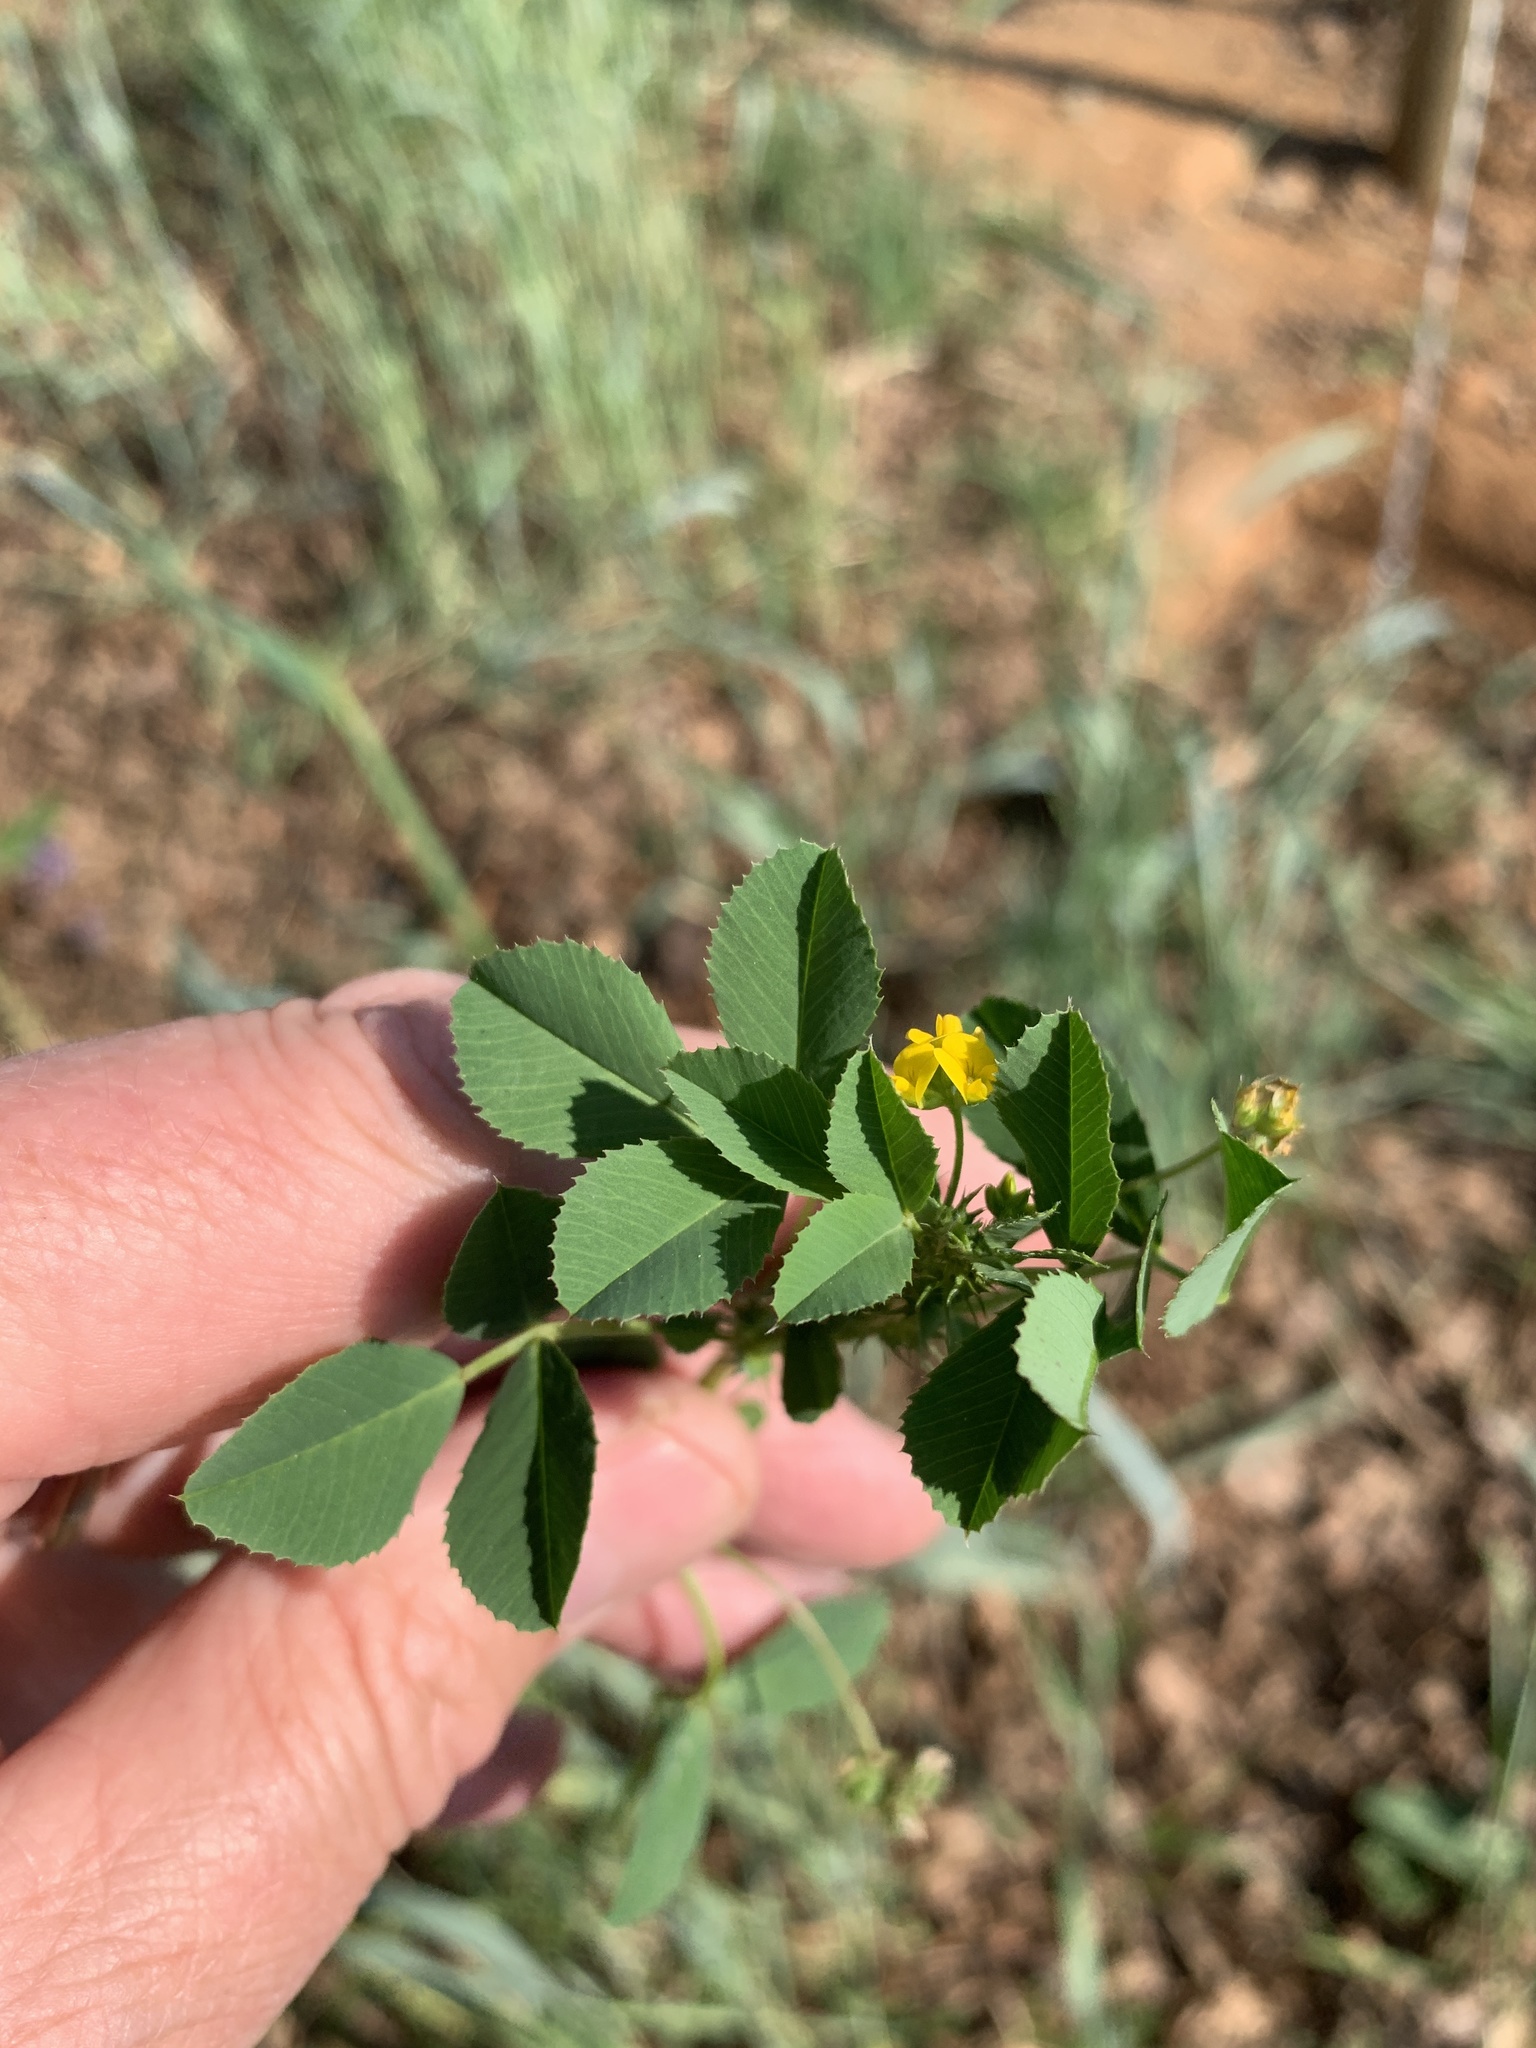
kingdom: Plantae
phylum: Tracheophyta
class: Magnoliopsida
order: Fabales
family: Fabaceae
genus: Medicago
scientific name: Medicago polymorpha
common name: Burclover
